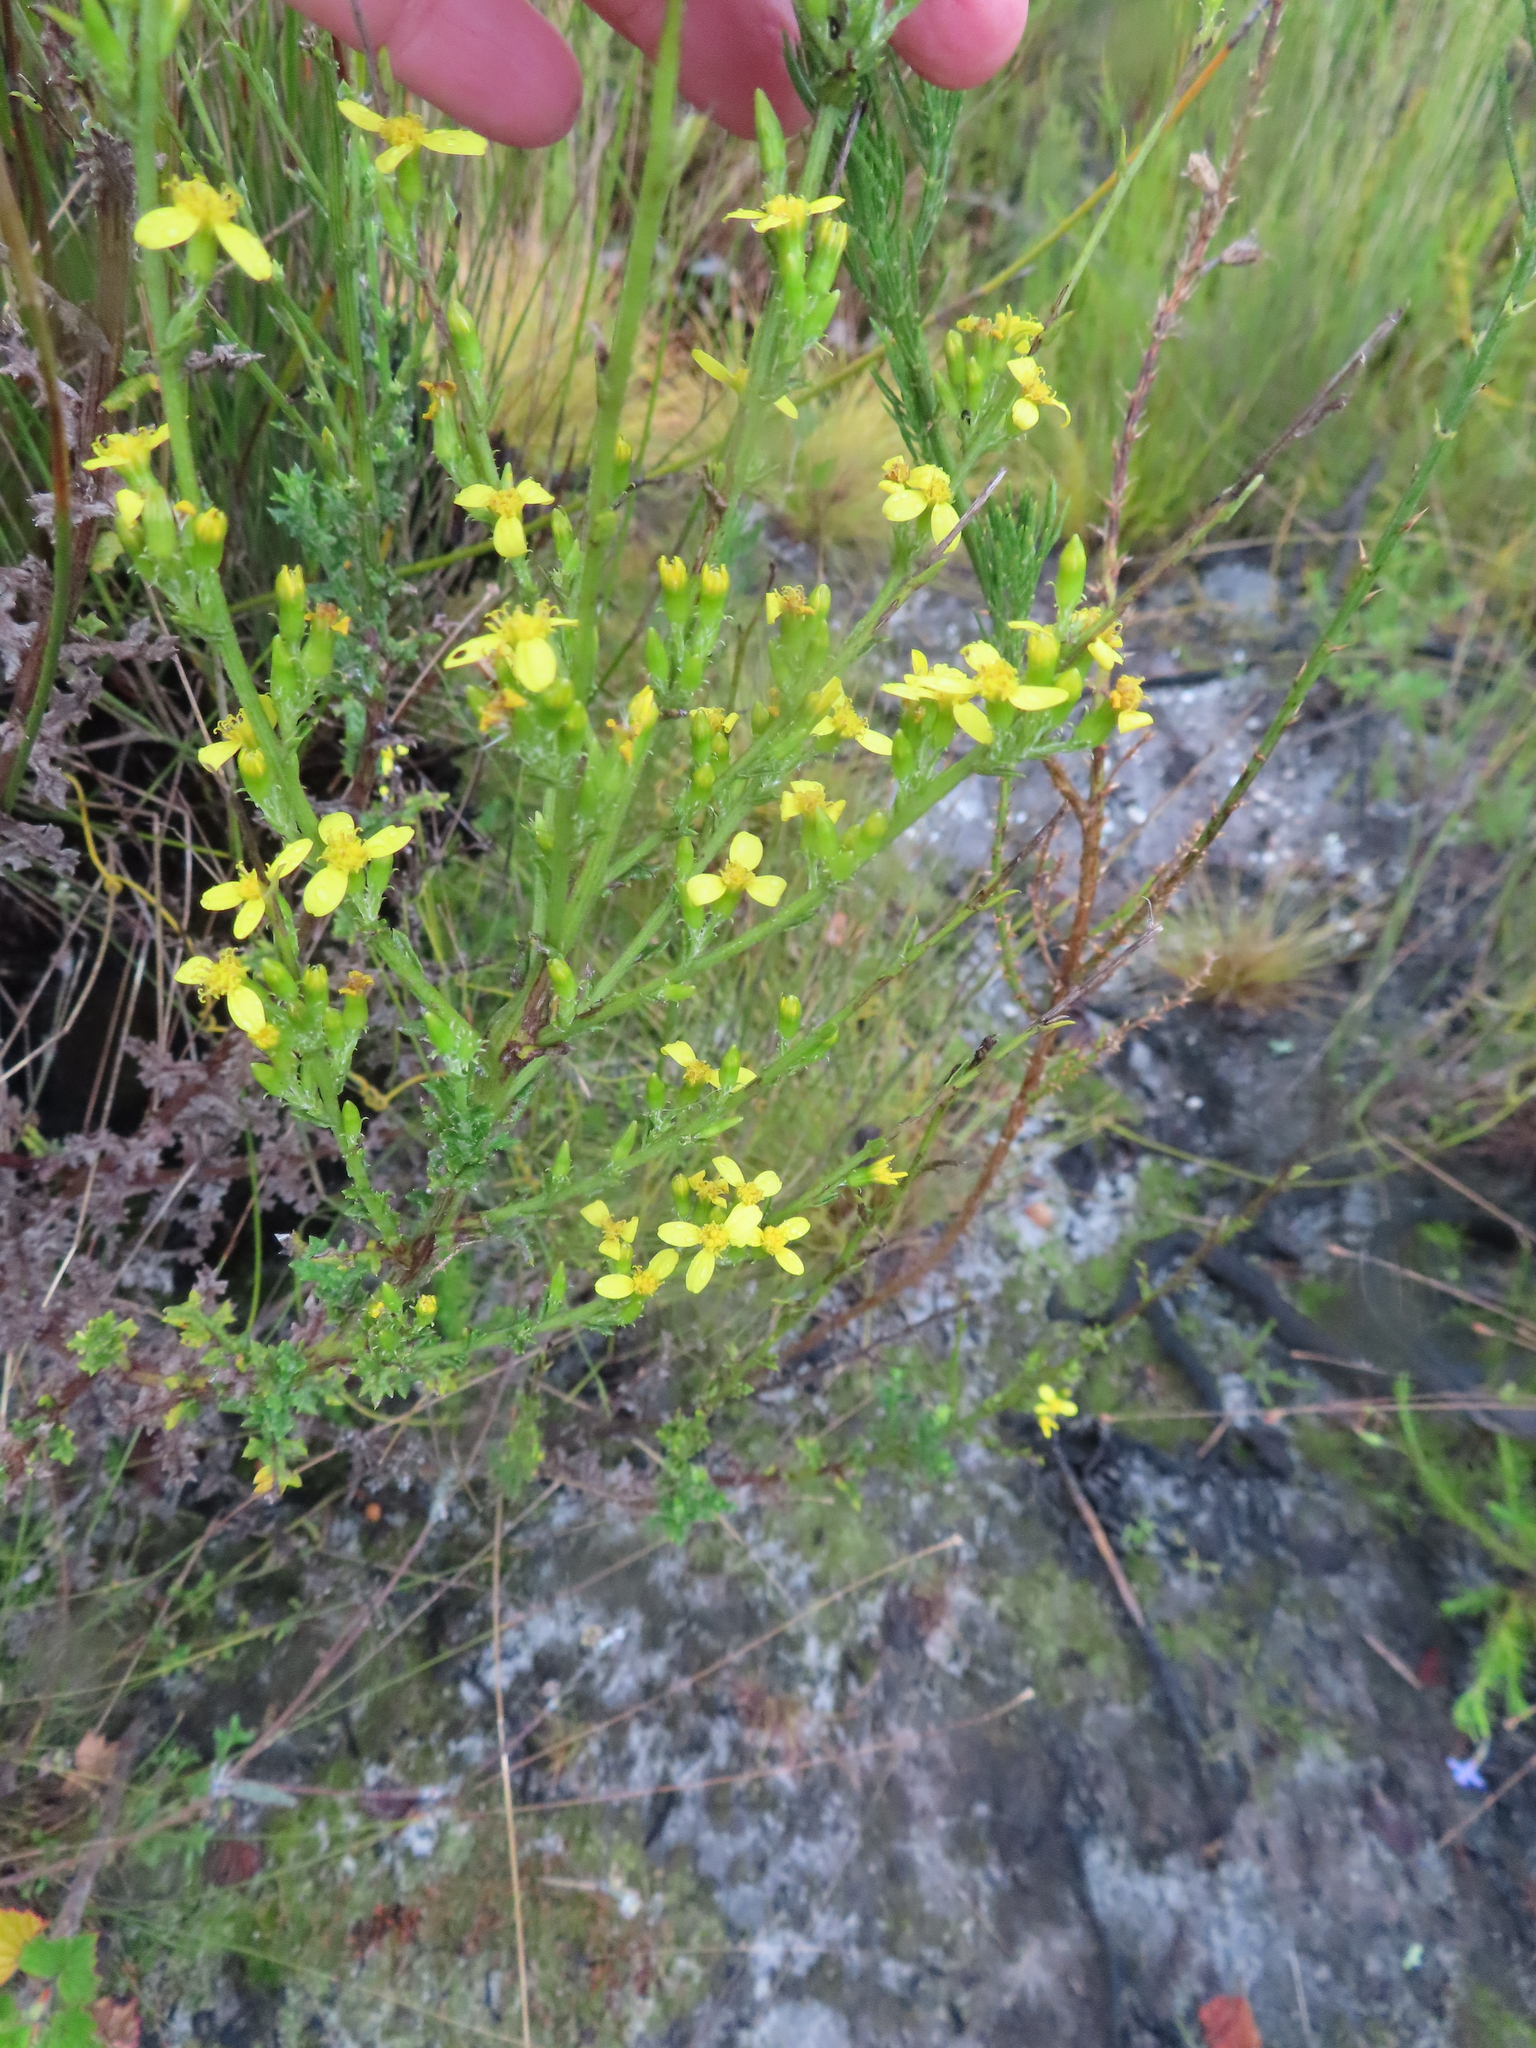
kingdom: Plantae
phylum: Tracheophyta
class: Magnoliopsida
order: Asterales
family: Asteraceae
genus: Senecio
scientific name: Senecio pubigerus
